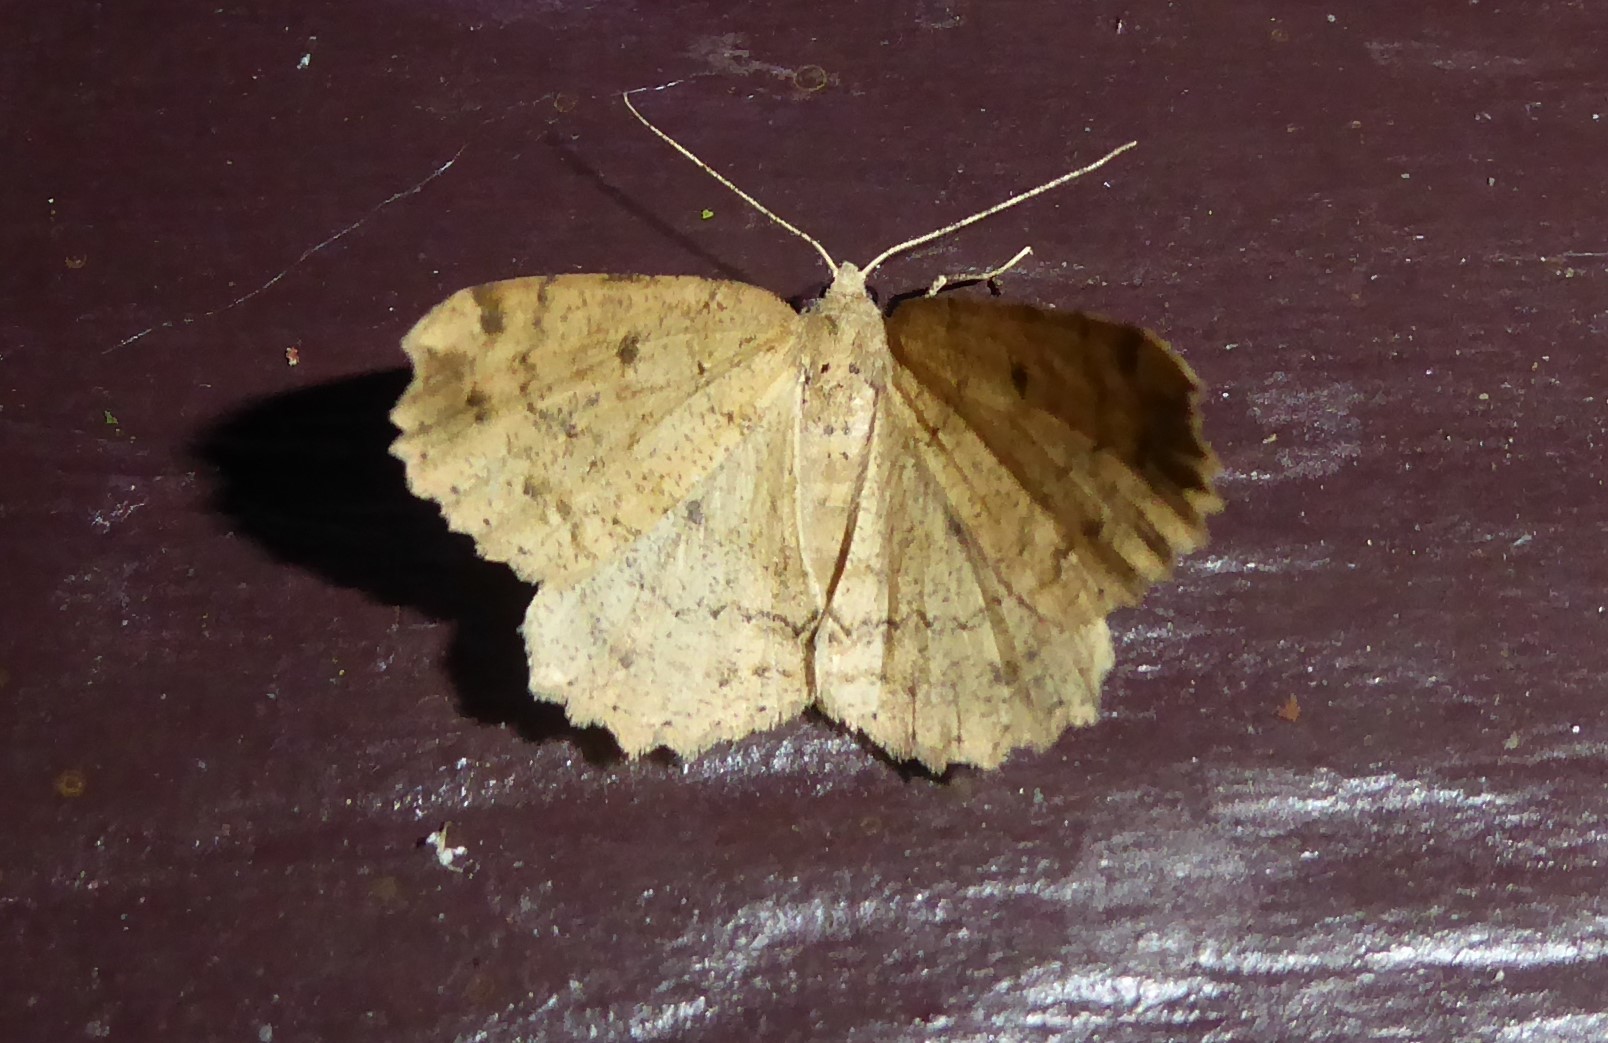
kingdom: Animalia
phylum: Arthropoda
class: Insecta
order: Lepidoptera
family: Geometridae
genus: Cleora
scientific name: Cleora scriptaria
